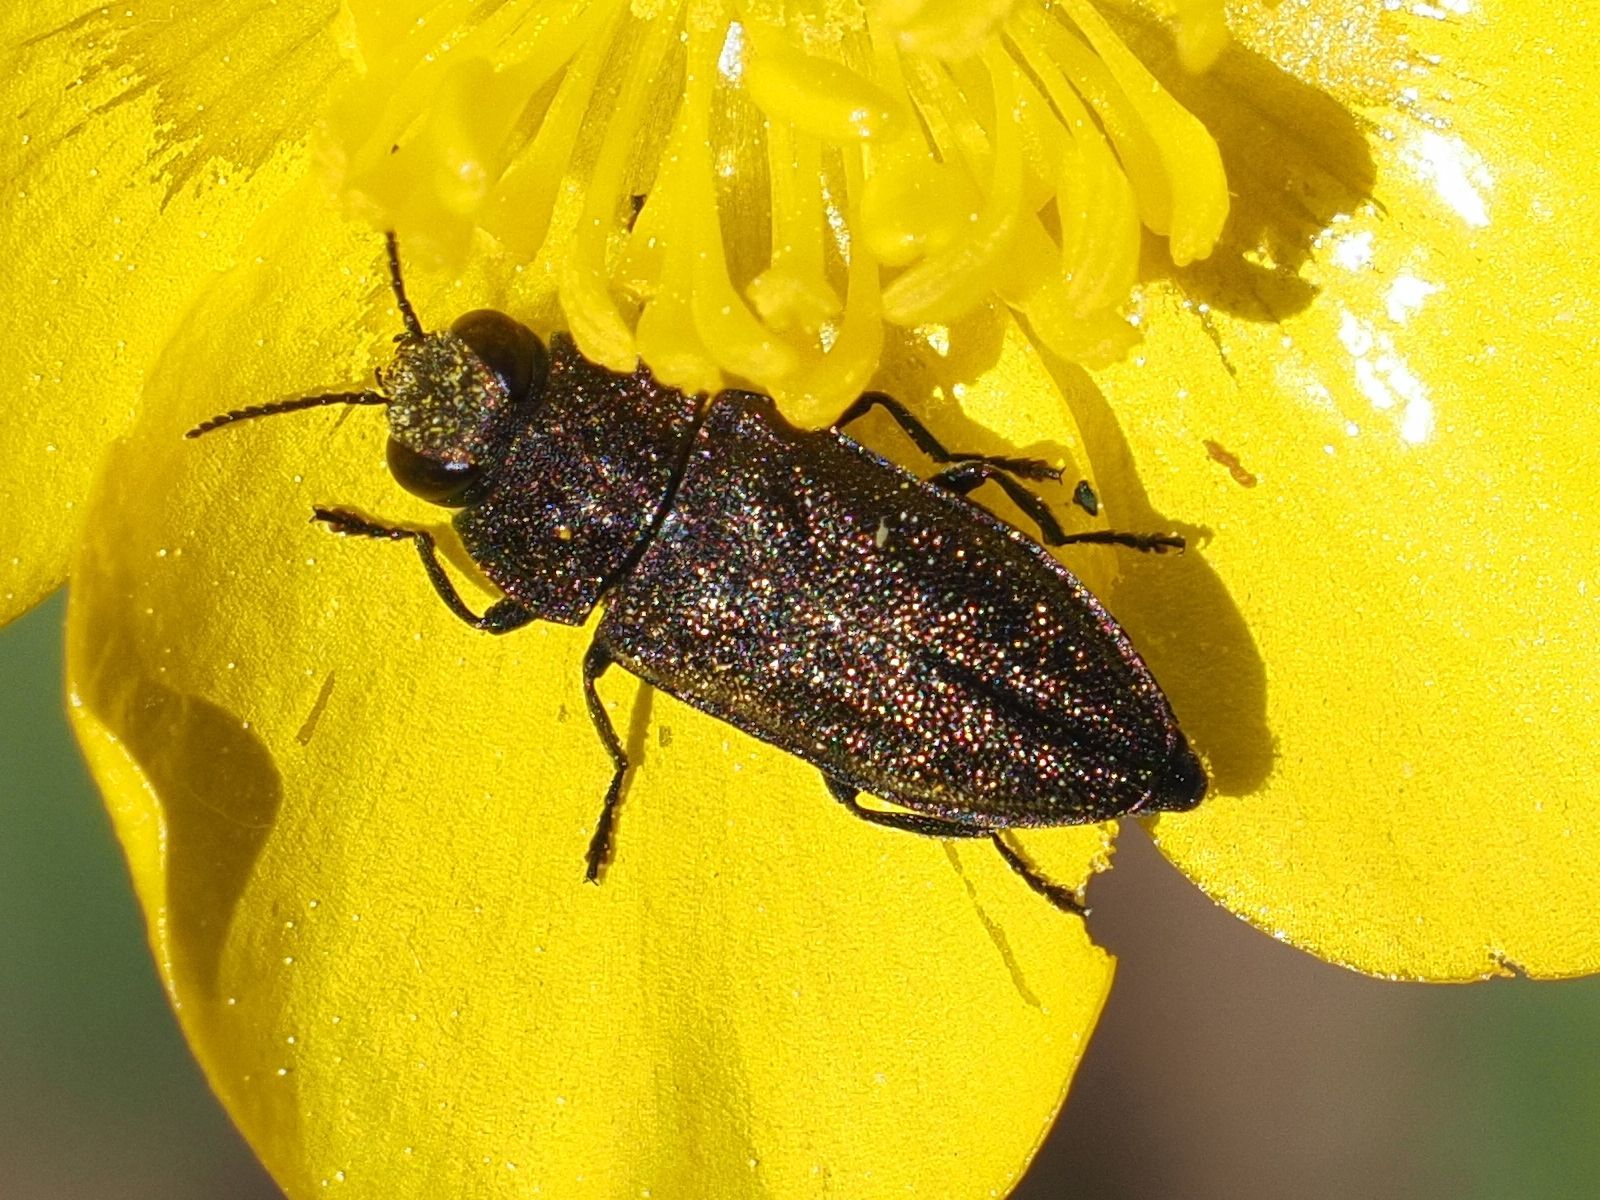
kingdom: Animalia
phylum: Arthropoda
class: Insecta
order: Coleoptera
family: Buprestidae
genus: Anthaxia
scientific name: Anthaxia morio
